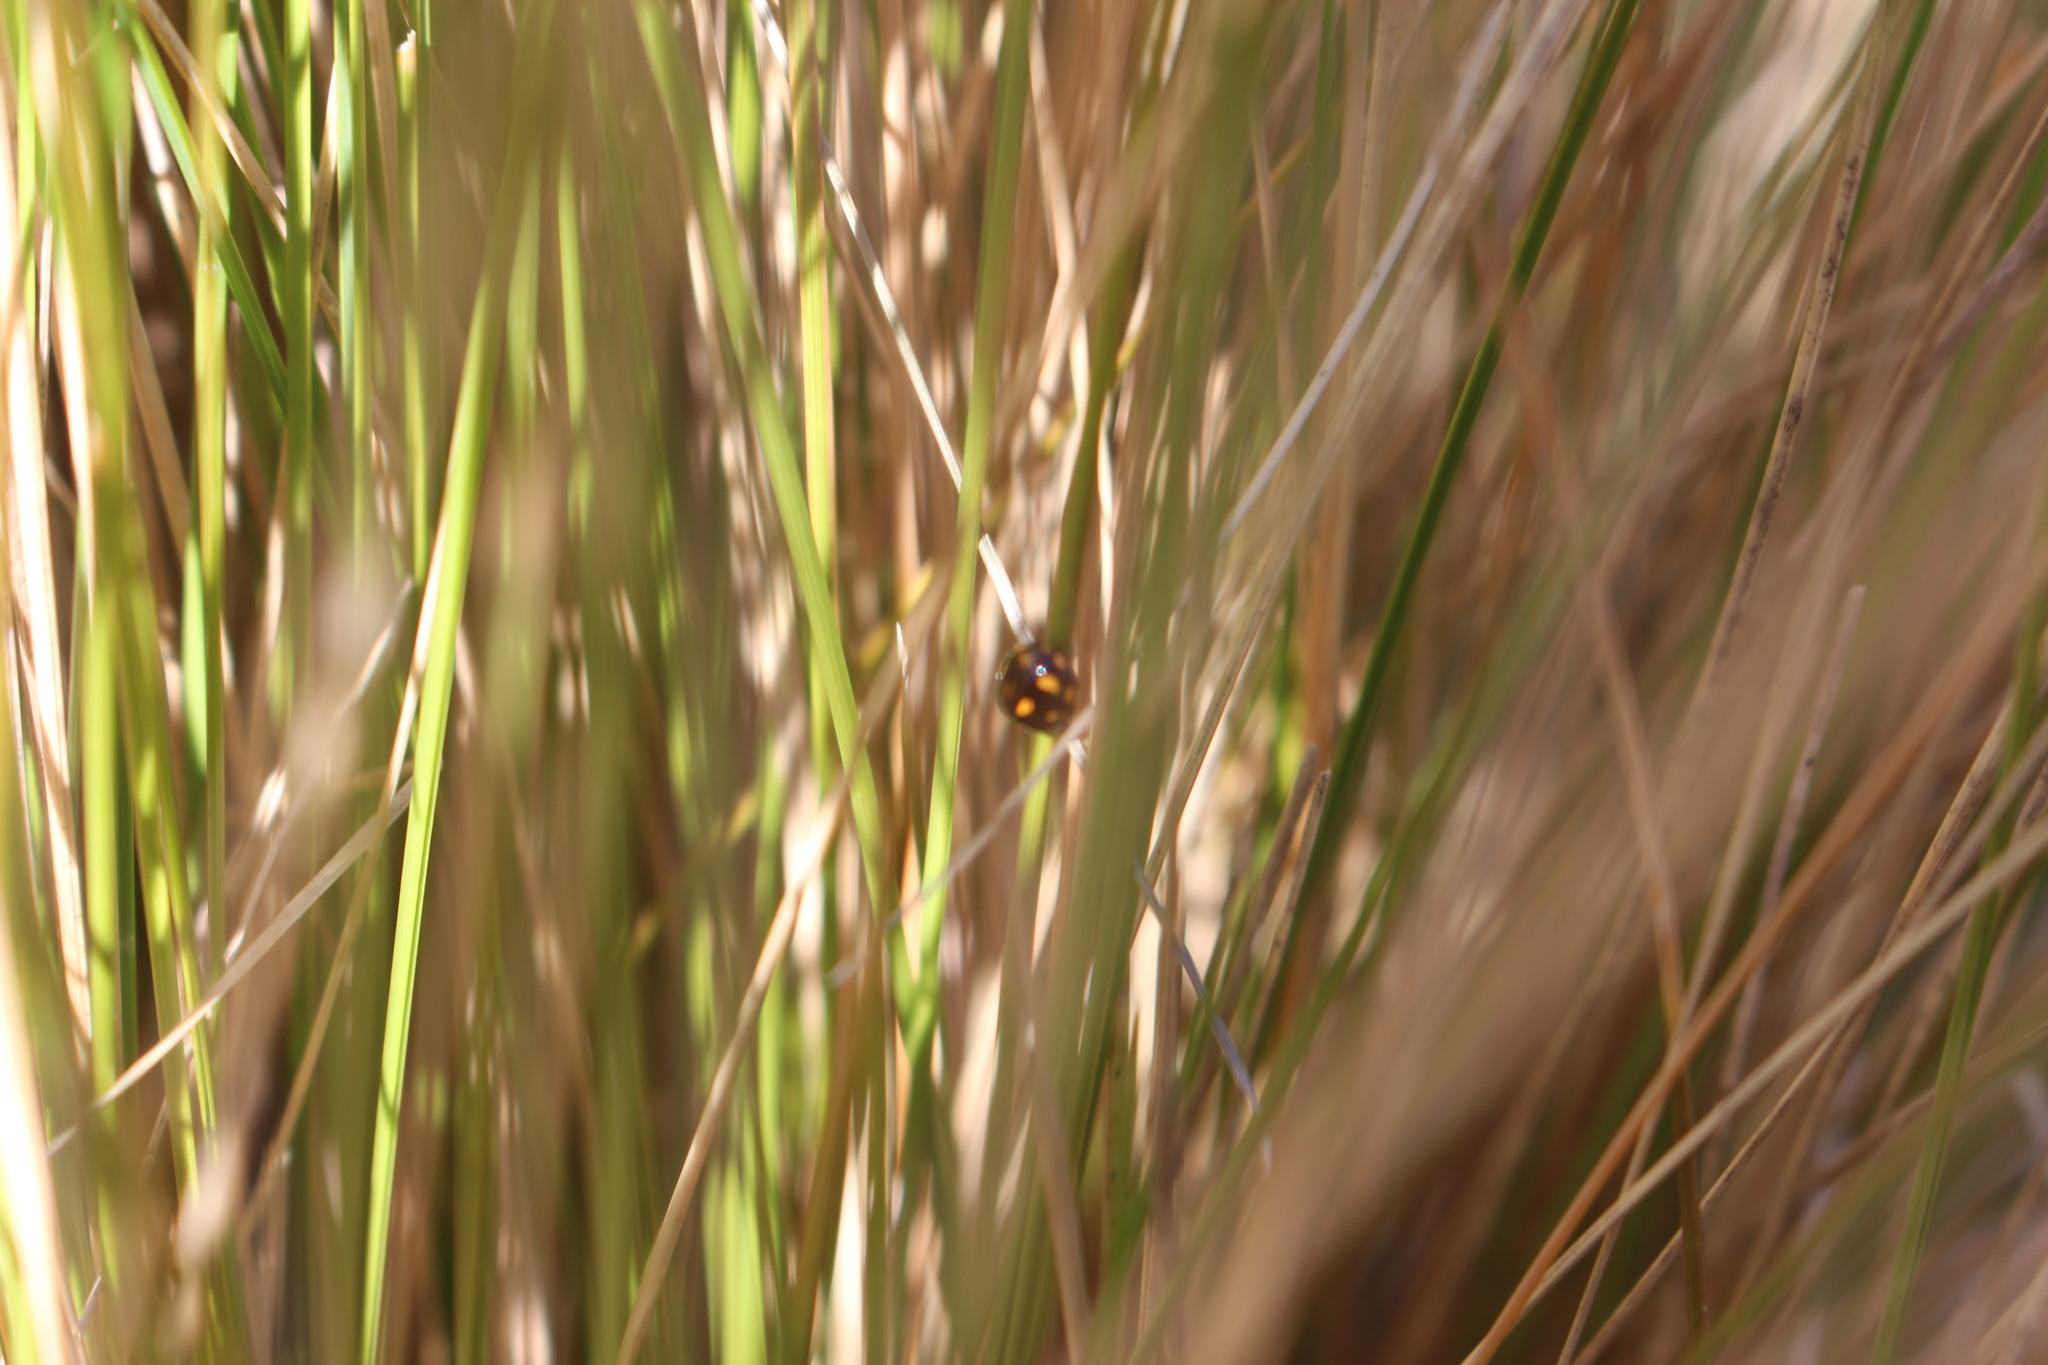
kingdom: Animalia
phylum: Arthropoda
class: Insecta
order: Coleoptera
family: Coccinellidae
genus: Coccinella
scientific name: Coccinella leonina
